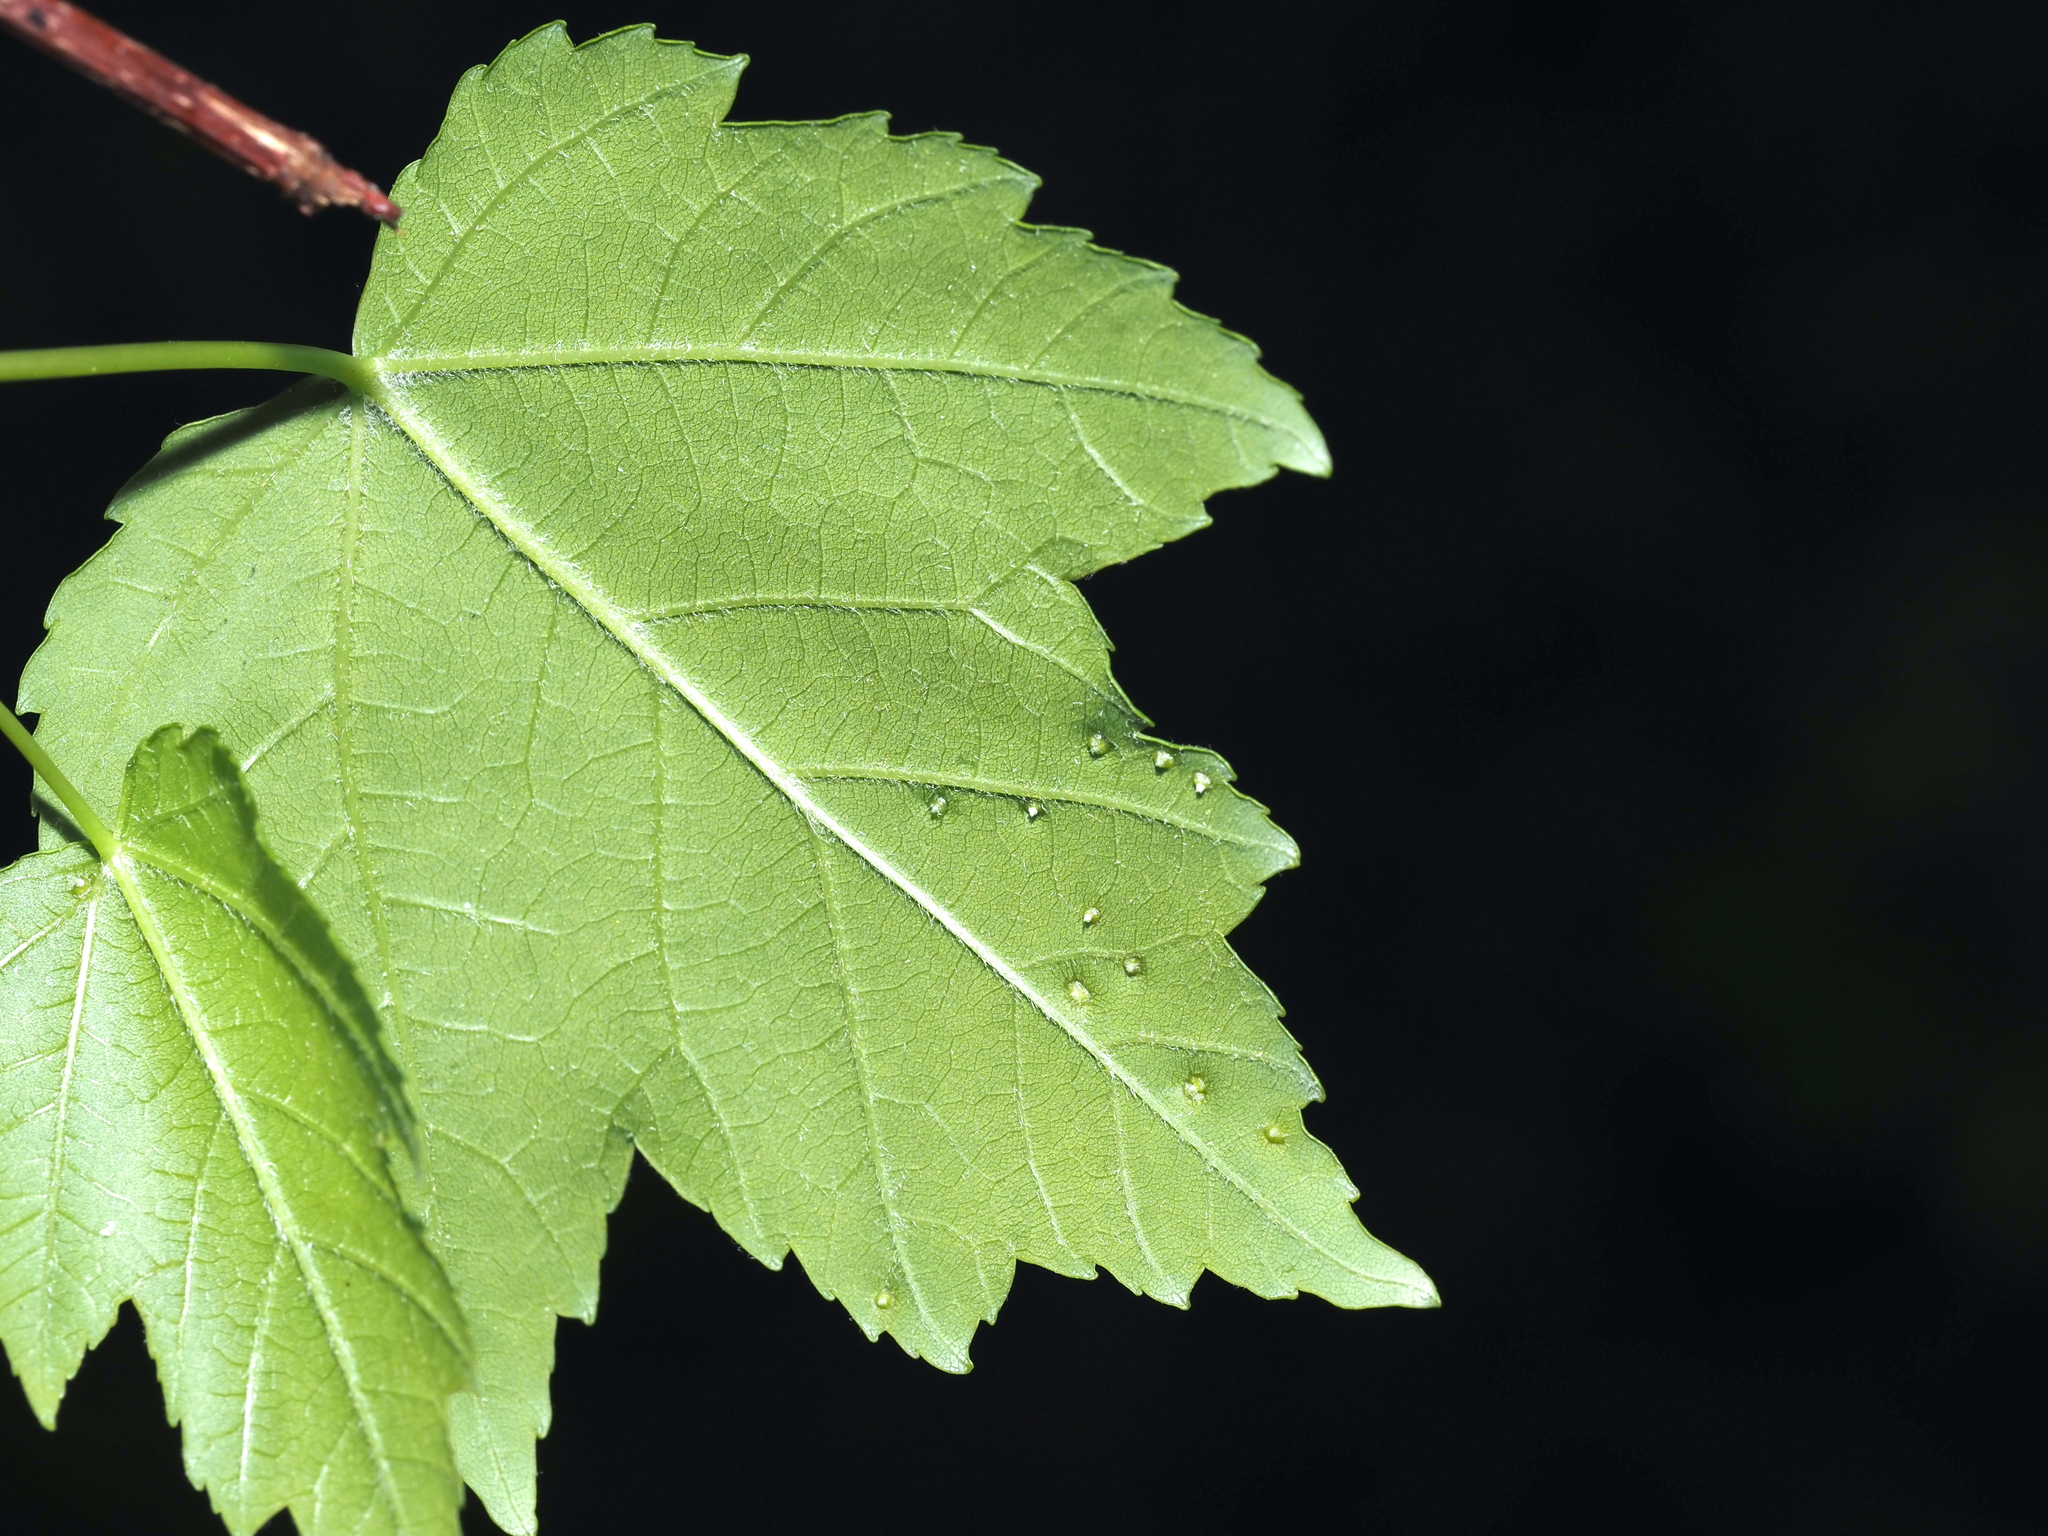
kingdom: Animalia
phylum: Arthropoda
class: Arachnida
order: Trombidiformes
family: Eriophyidae
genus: Vasates
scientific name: Vasates quadripedes
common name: Maple bladder gall mite
